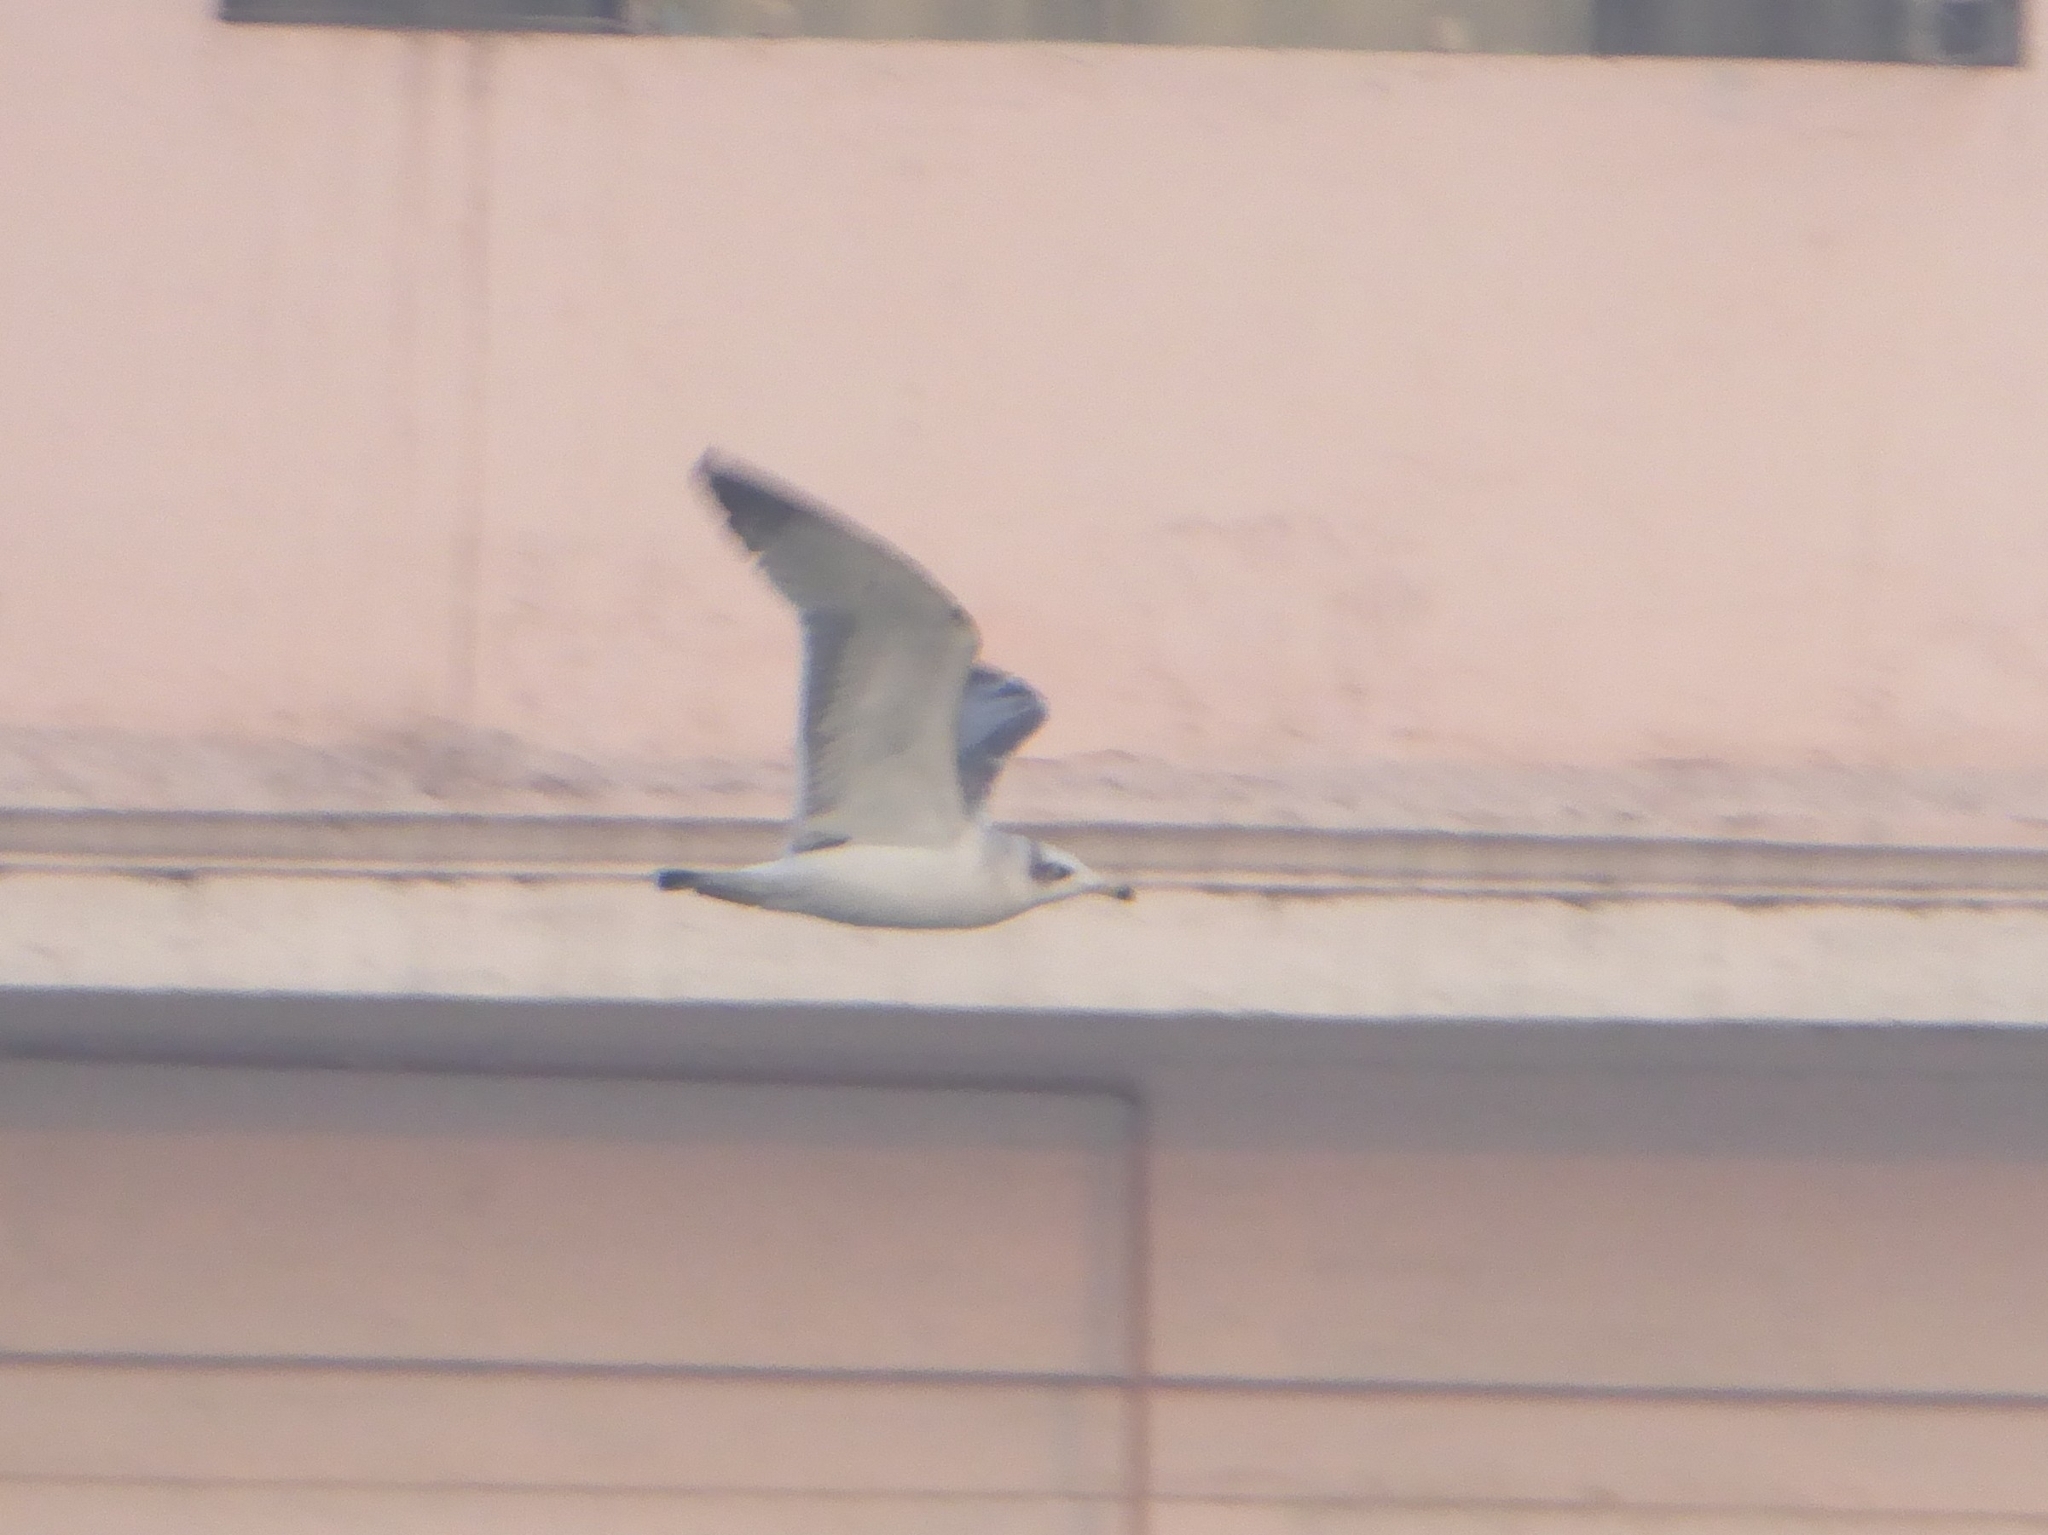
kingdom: Animalia
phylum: Chordata
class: Aves
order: Charadriiformes
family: Laridae
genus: Ichthyaetus
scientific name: Ichthyaetus ichthyaetus
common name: Pallas's gull
